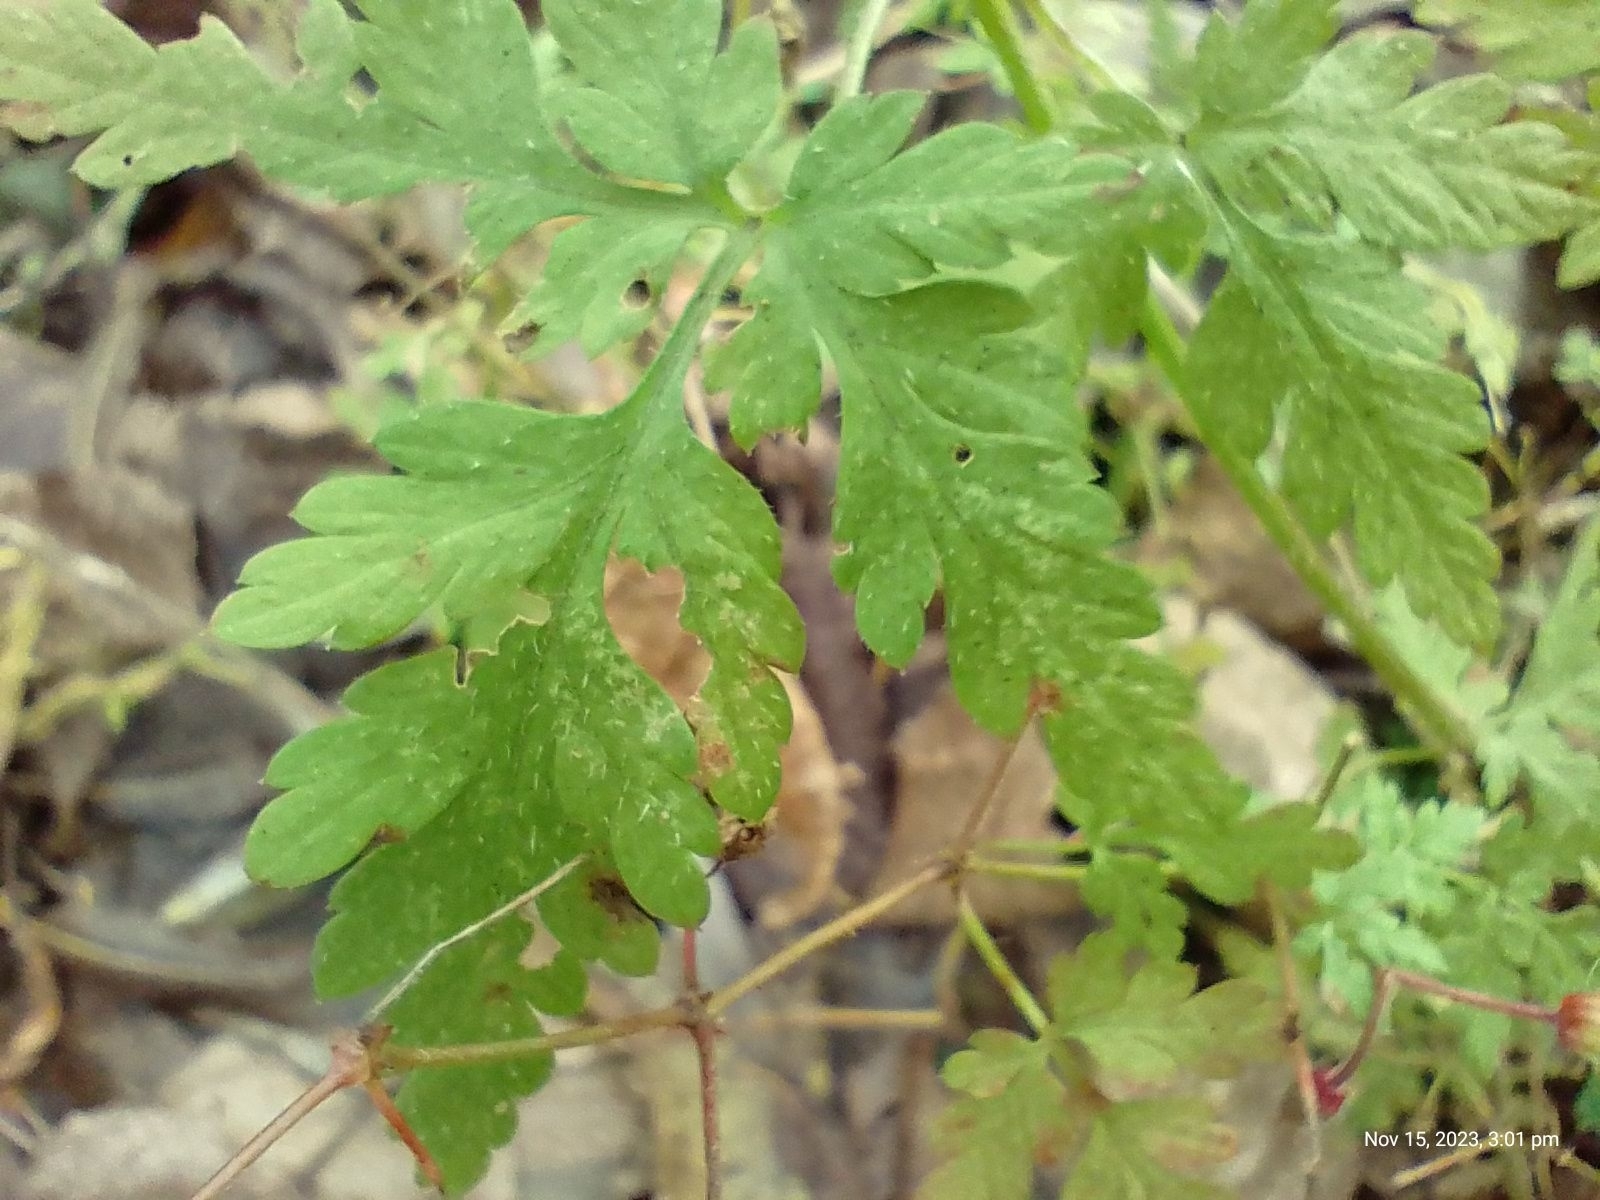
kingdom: Plantae
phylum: Tracheophyta
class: Magnoliopsida
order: Geraniales
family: Geraniaceae
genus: Geranium
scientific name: Geranium robertianum
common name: Herb-robert
